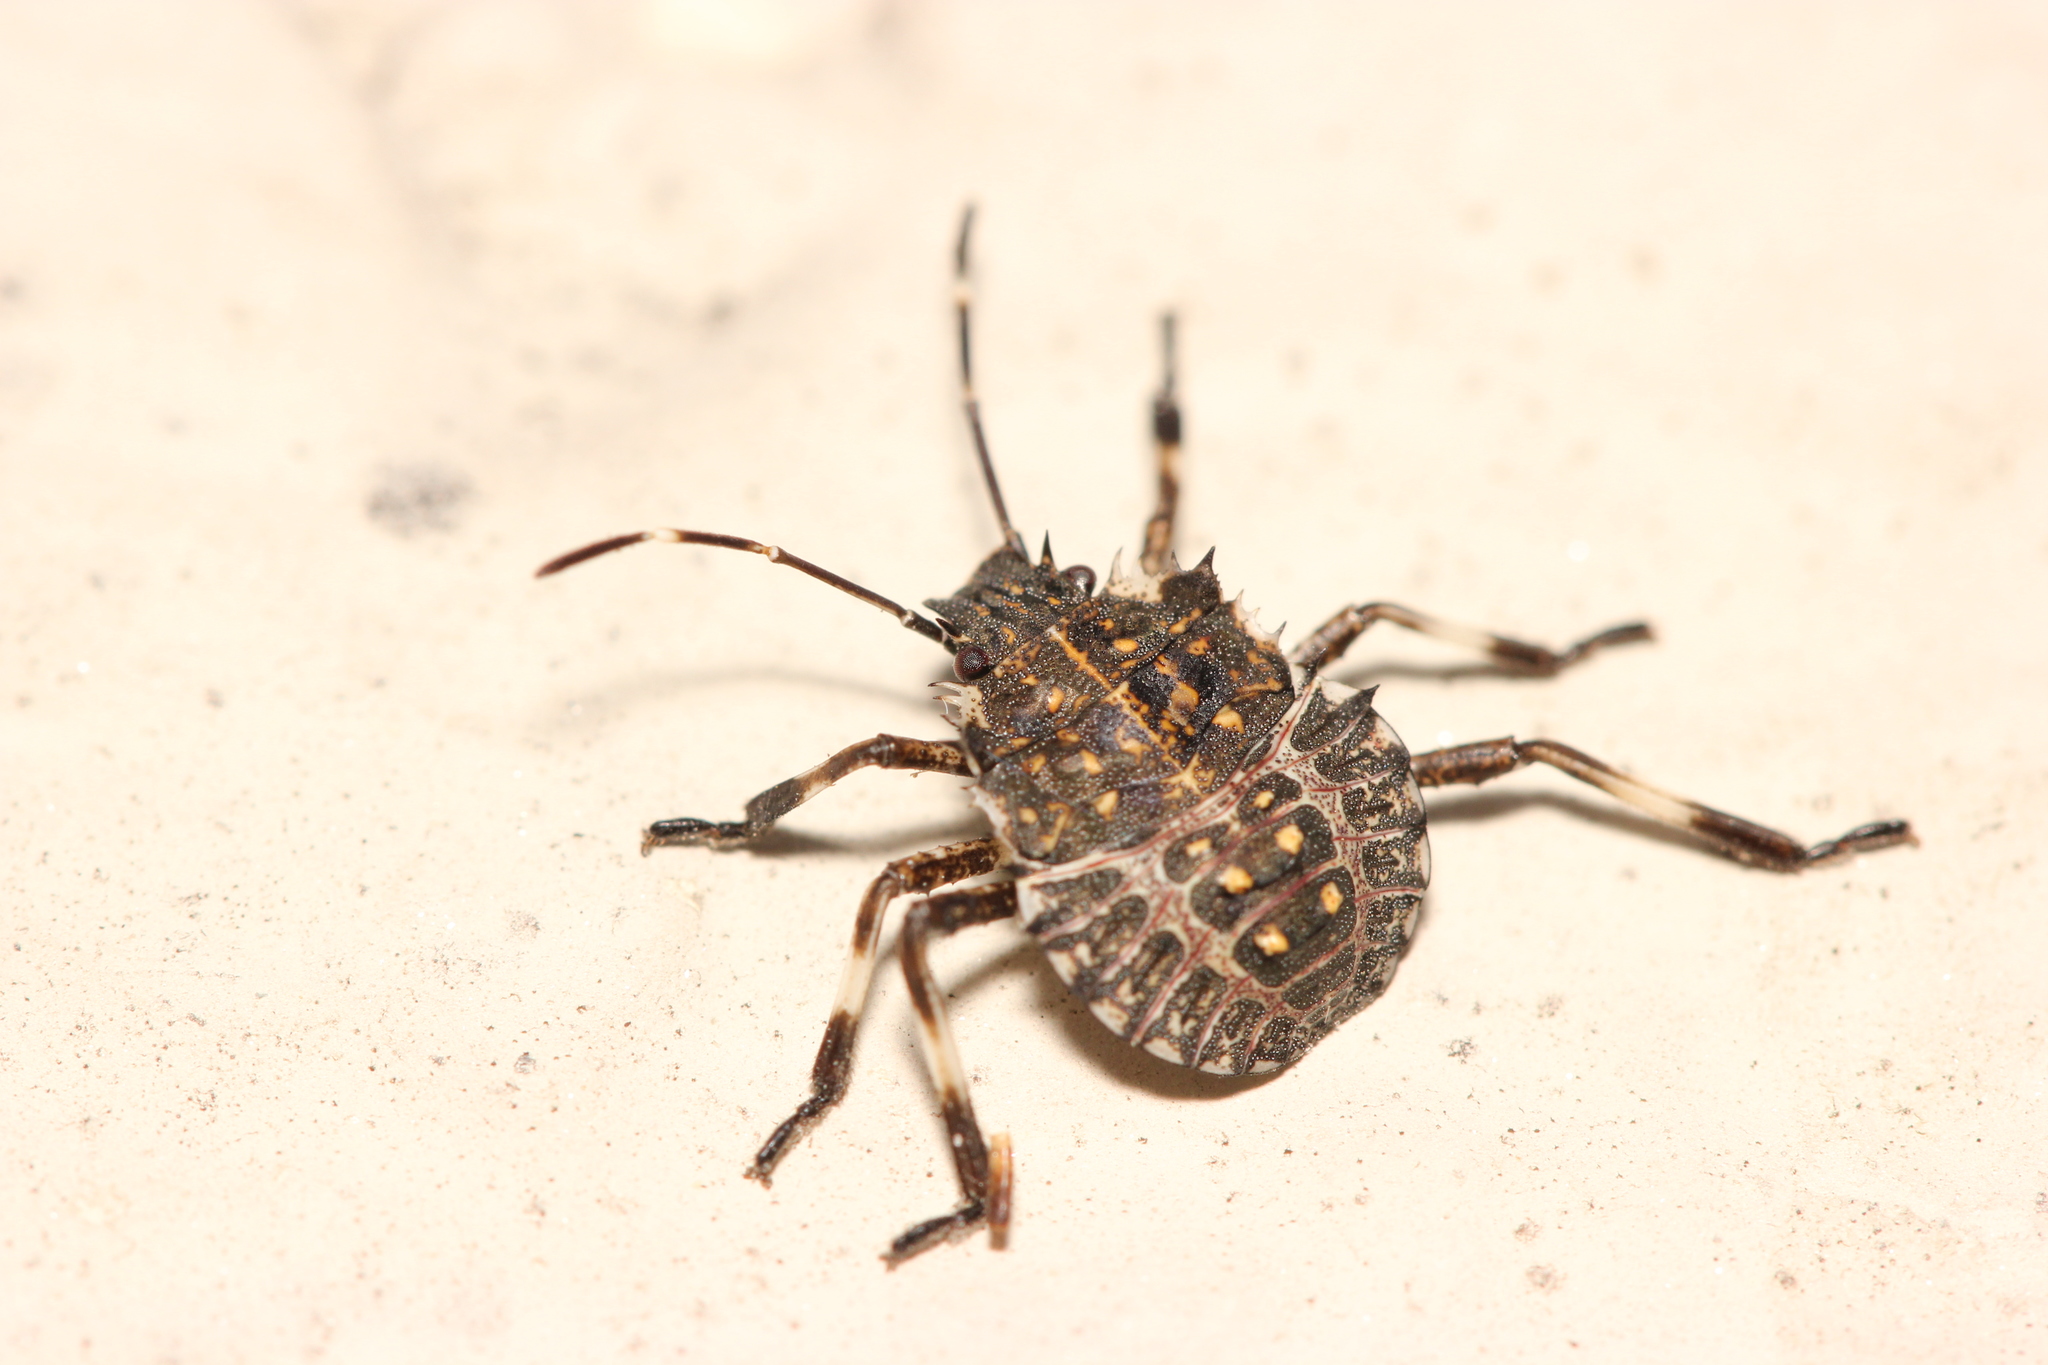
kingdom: Animalia
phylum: Arthropoda
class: Insecta
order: Hemiptera
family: Pentatomidae
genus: Halyomorpha
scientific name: Halyomorpha halys
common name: Brown marmorated stink bug
